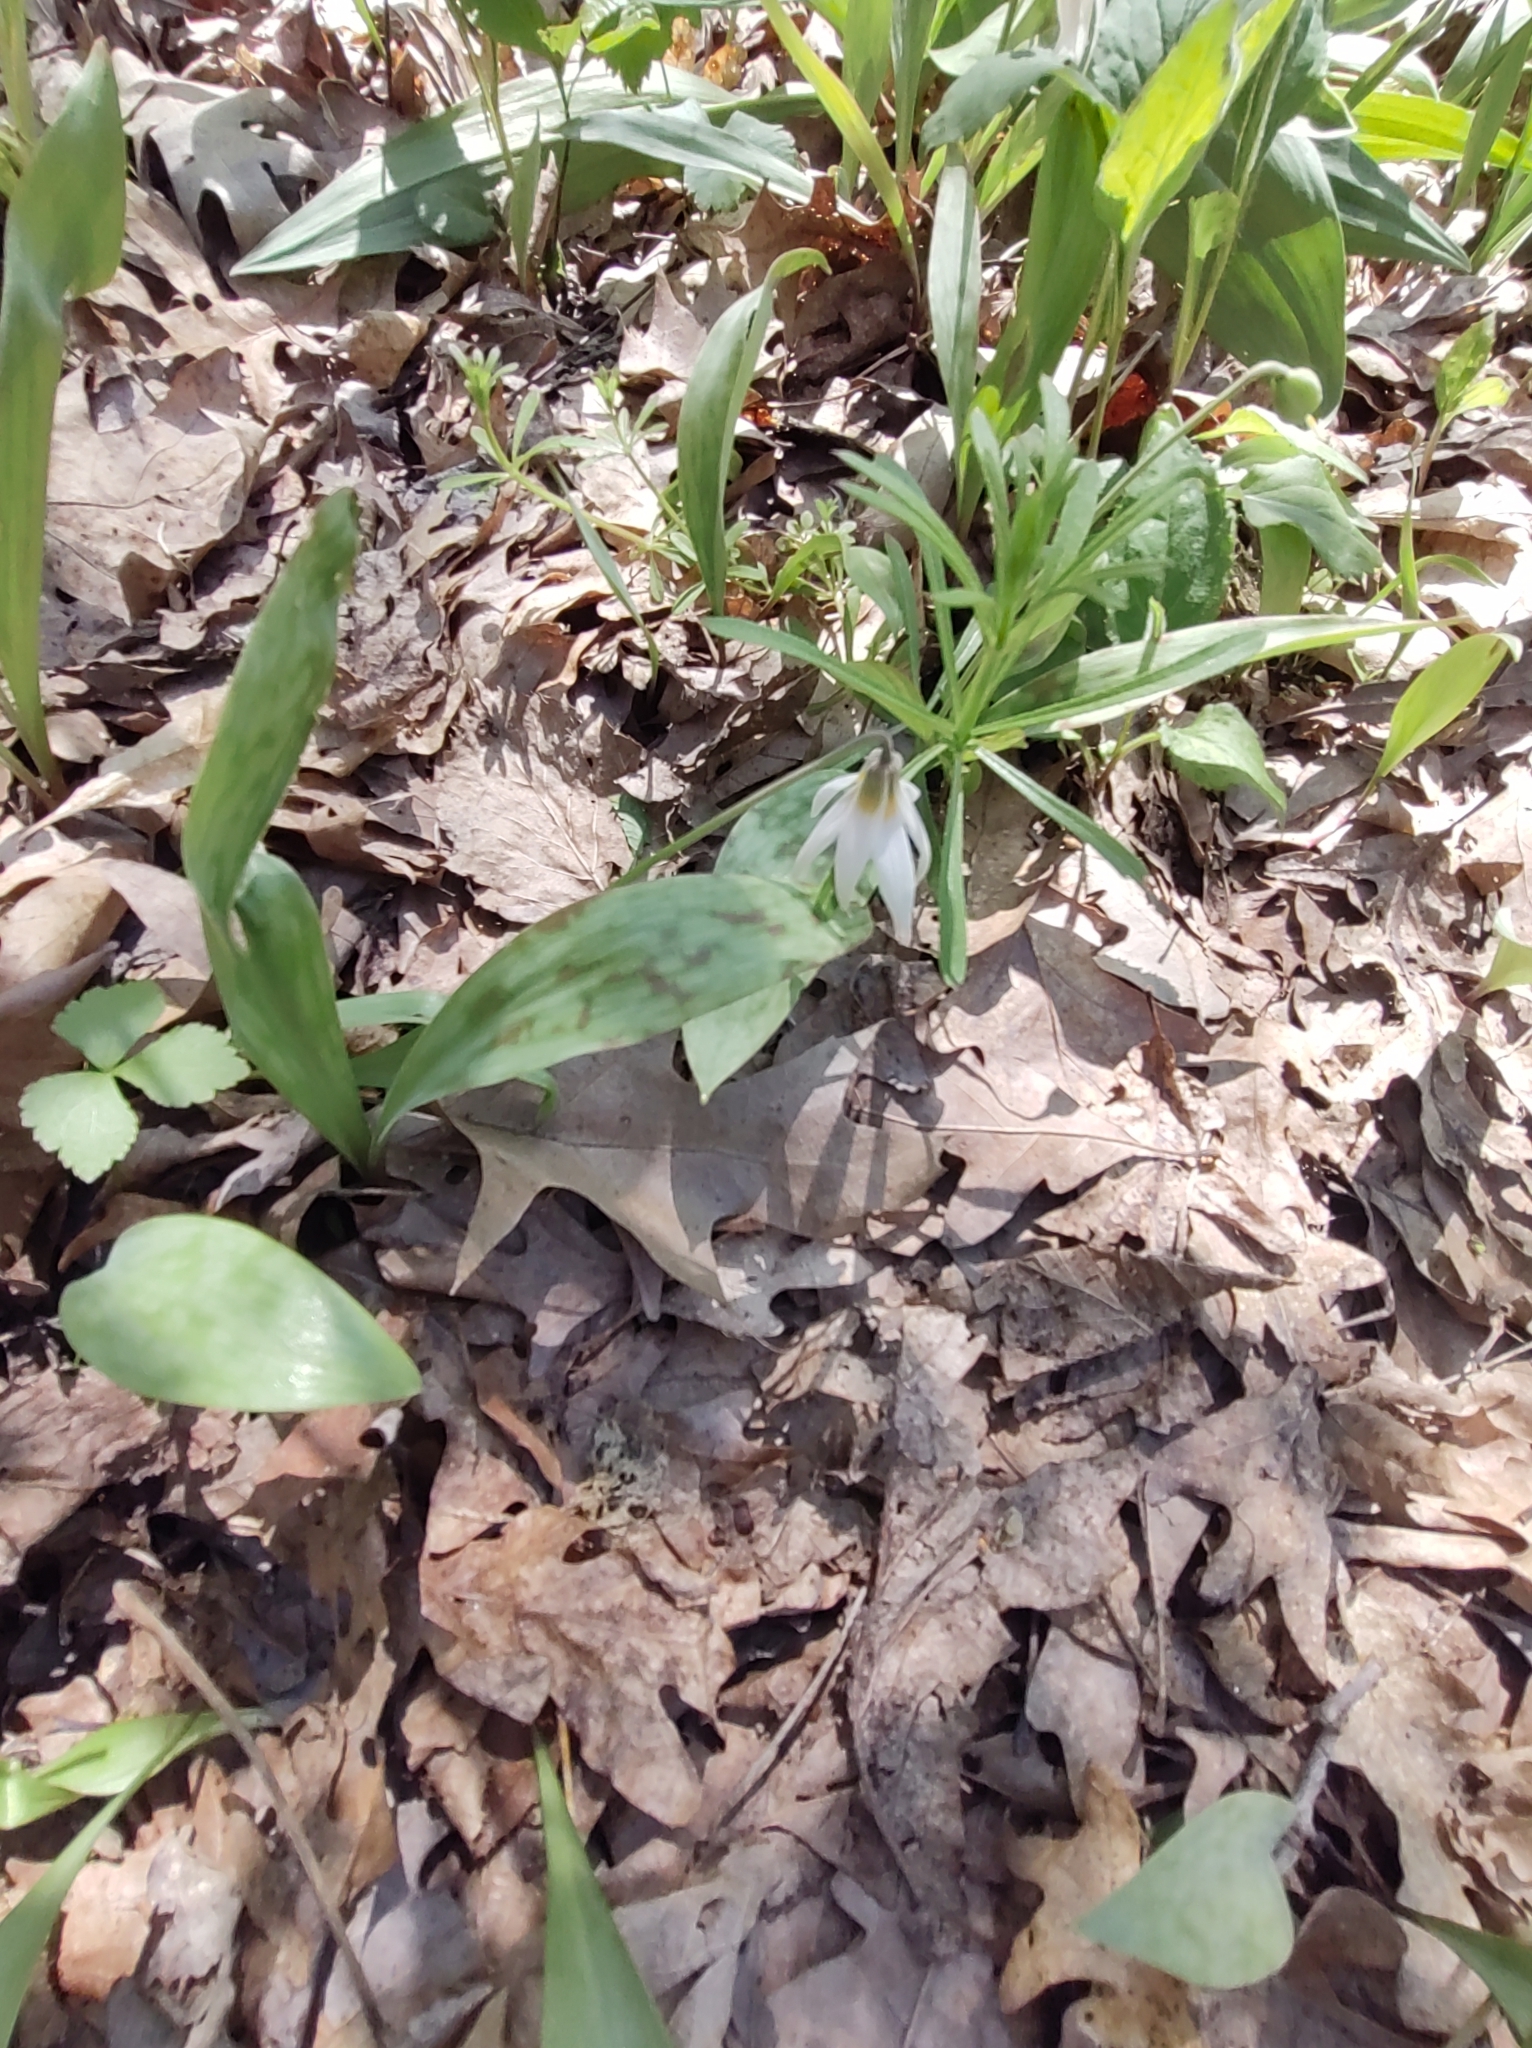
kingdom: Plantae
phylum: Tracheophyta
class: Liliopsida
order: Liliales
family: Liliaceae
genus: Erythronium
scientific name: Erythronium albidum
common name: White trout-lily
